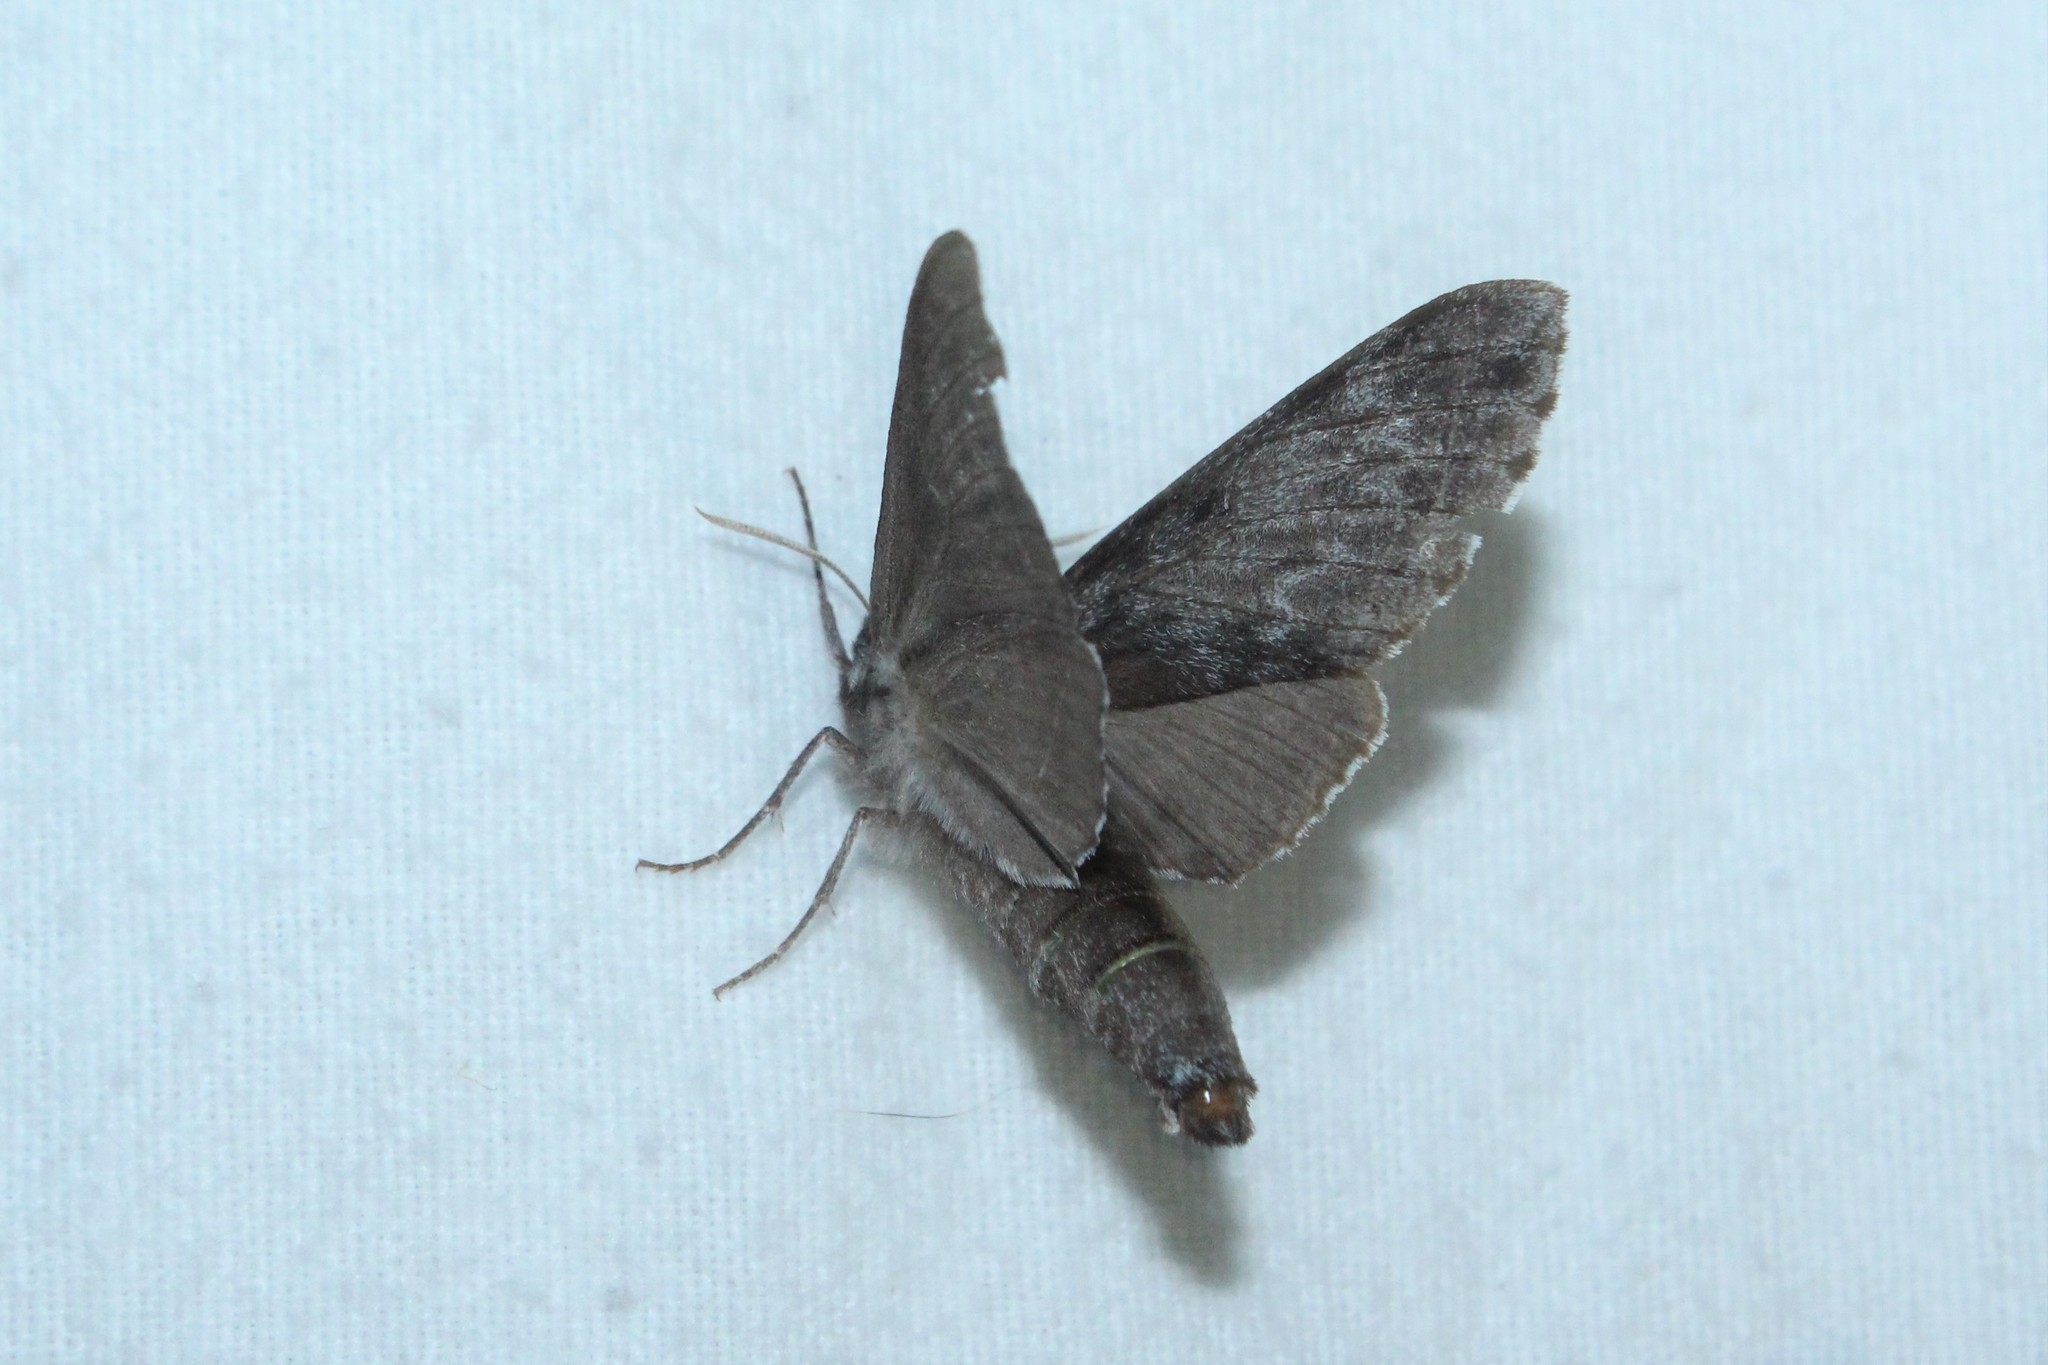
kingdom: Animalia
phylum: Arthropoda
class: Insecta
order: Lepidoptera
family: Sphingidae
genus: Lapara
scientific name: Lapara bombycoides
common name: Northern pine sphinx
